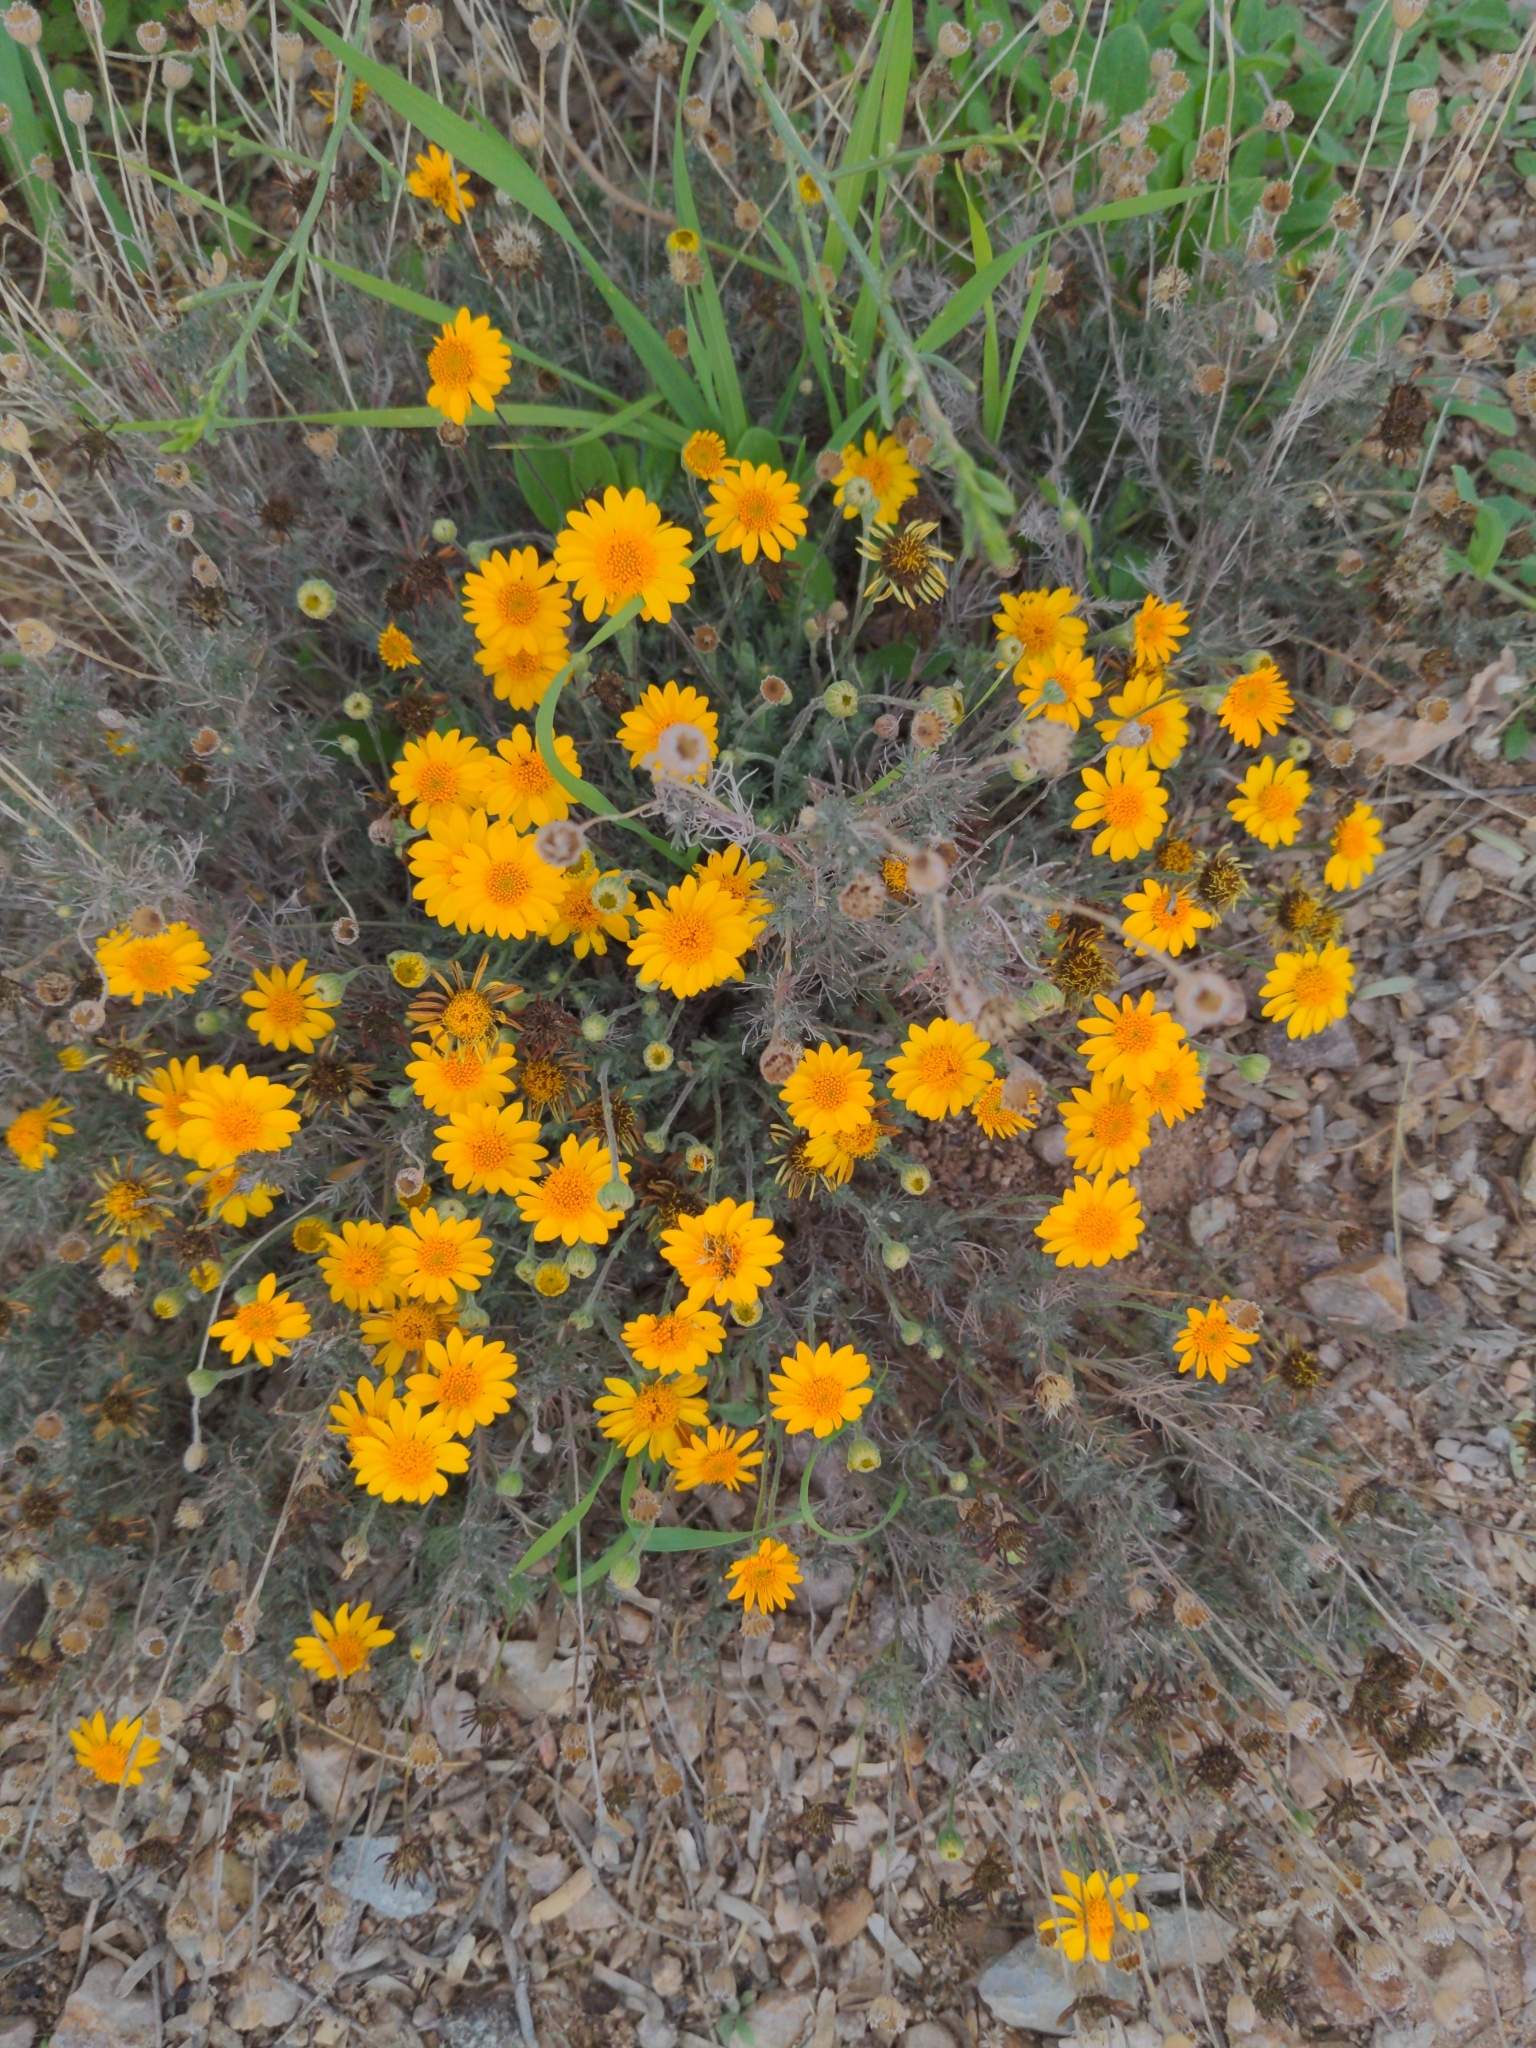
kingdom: Plantae
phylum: Tracheophyta
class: Magnoliopsida
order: Asterales
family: Asteraceae
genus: Thymophylla
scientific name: Thymophylla pentachaeta
